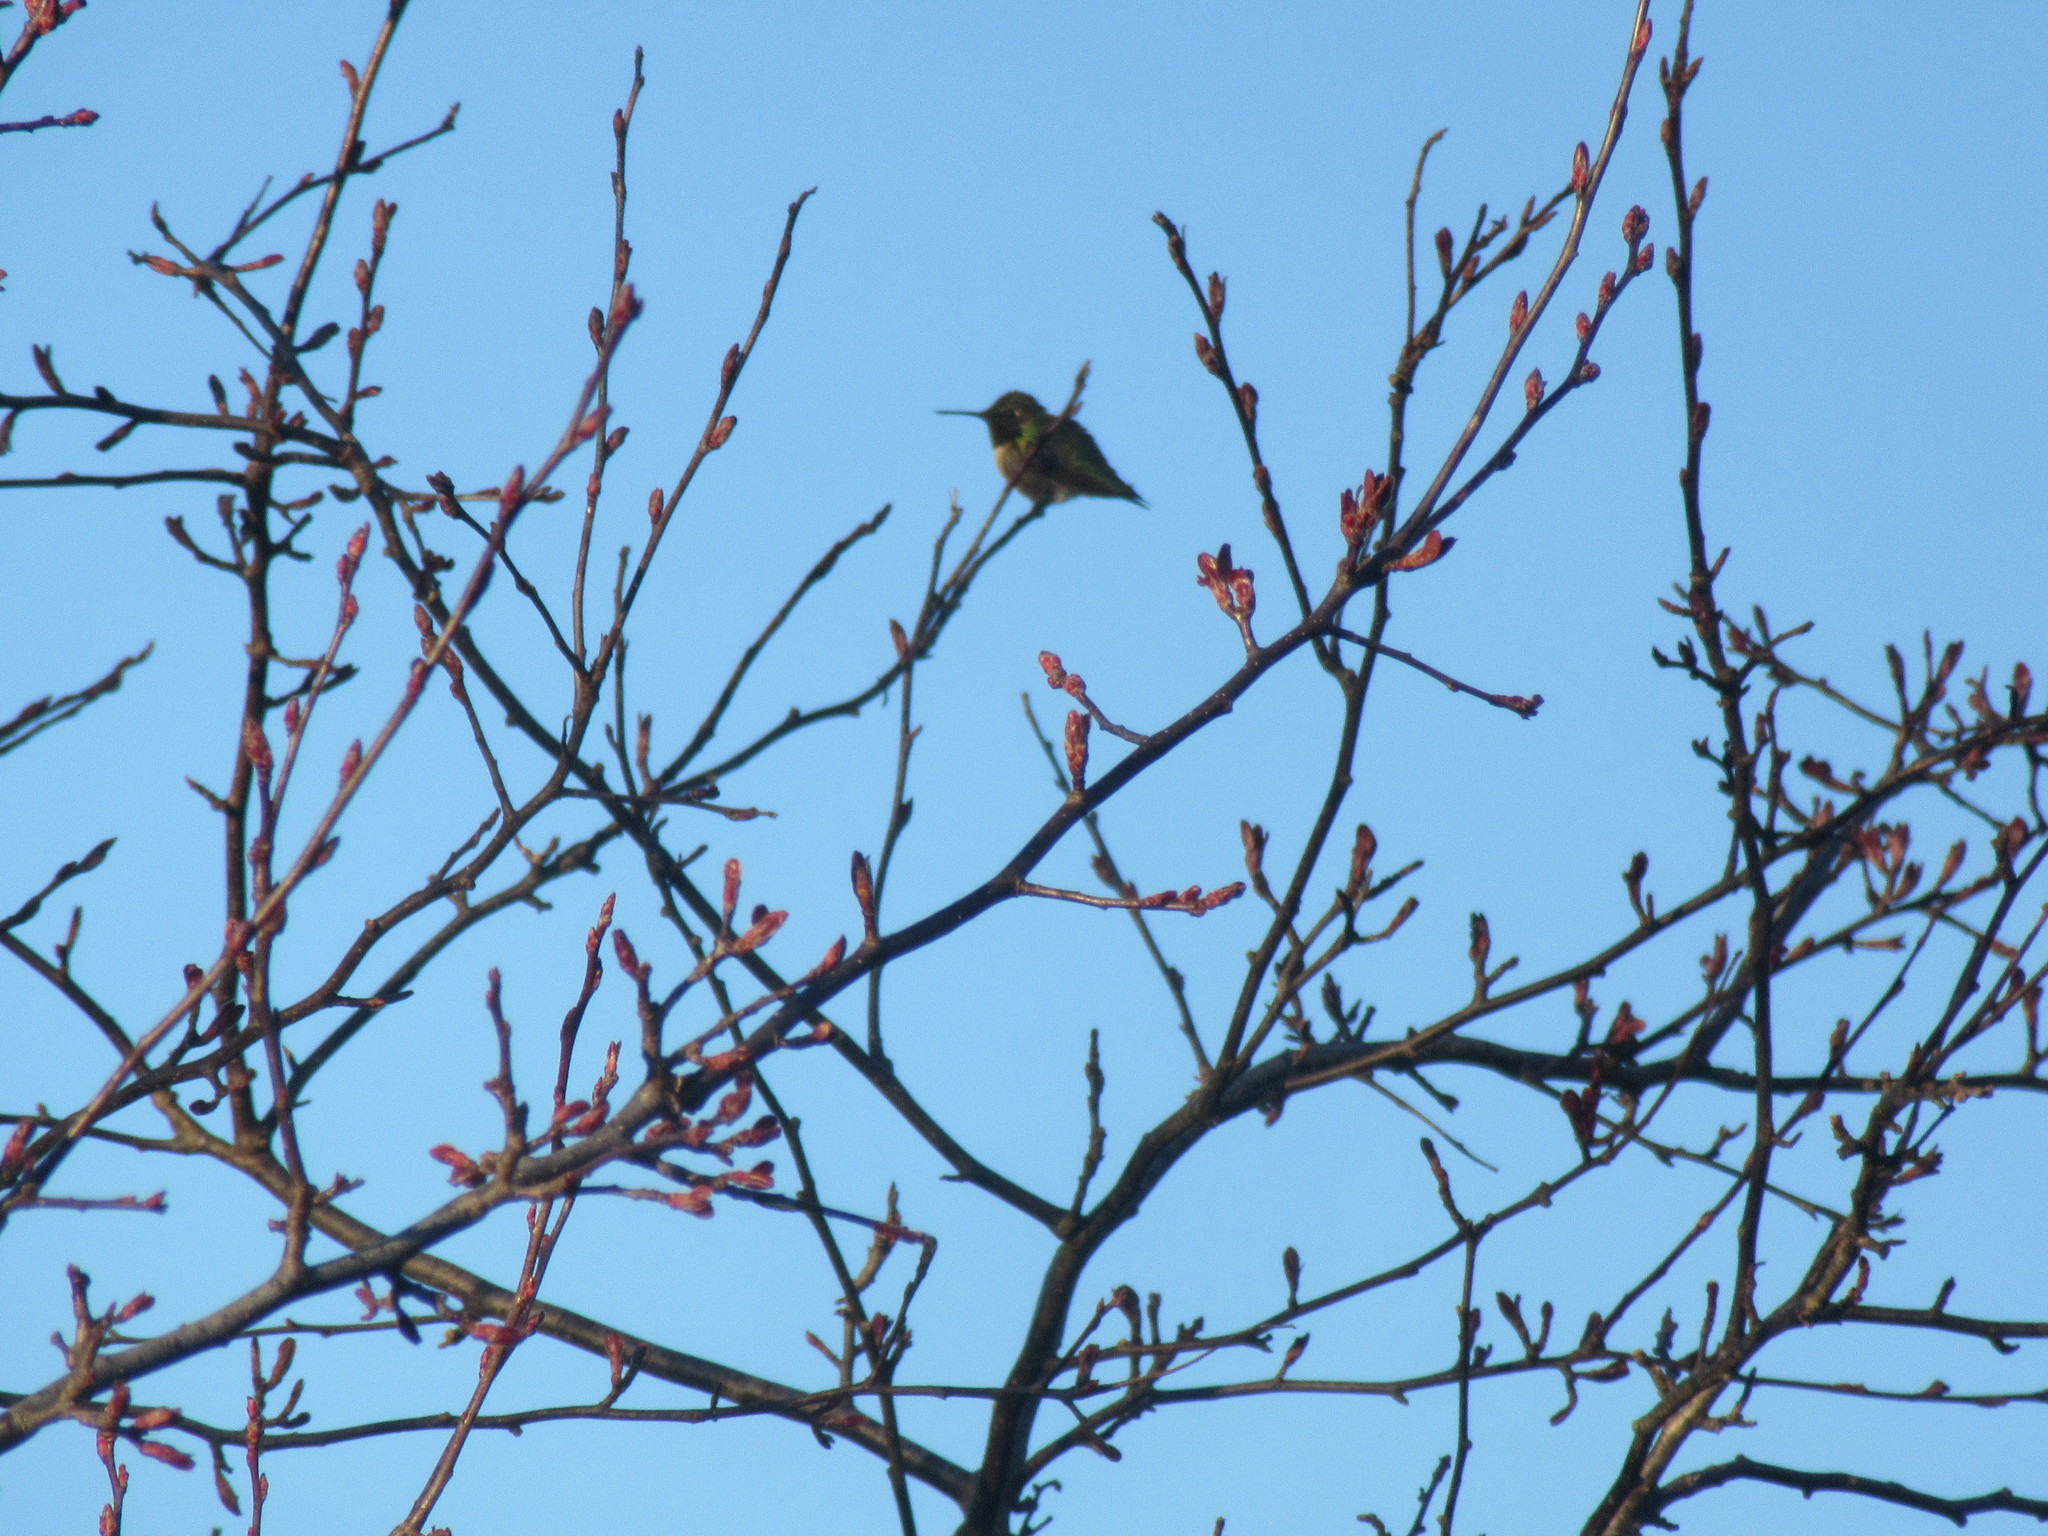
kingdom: Animalia
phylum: Chordata
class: Aves
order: Apodiformes
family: Trochilidae
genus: Archilochus
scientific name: Archilochus colubris
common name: Ruby-throated hummingbird
